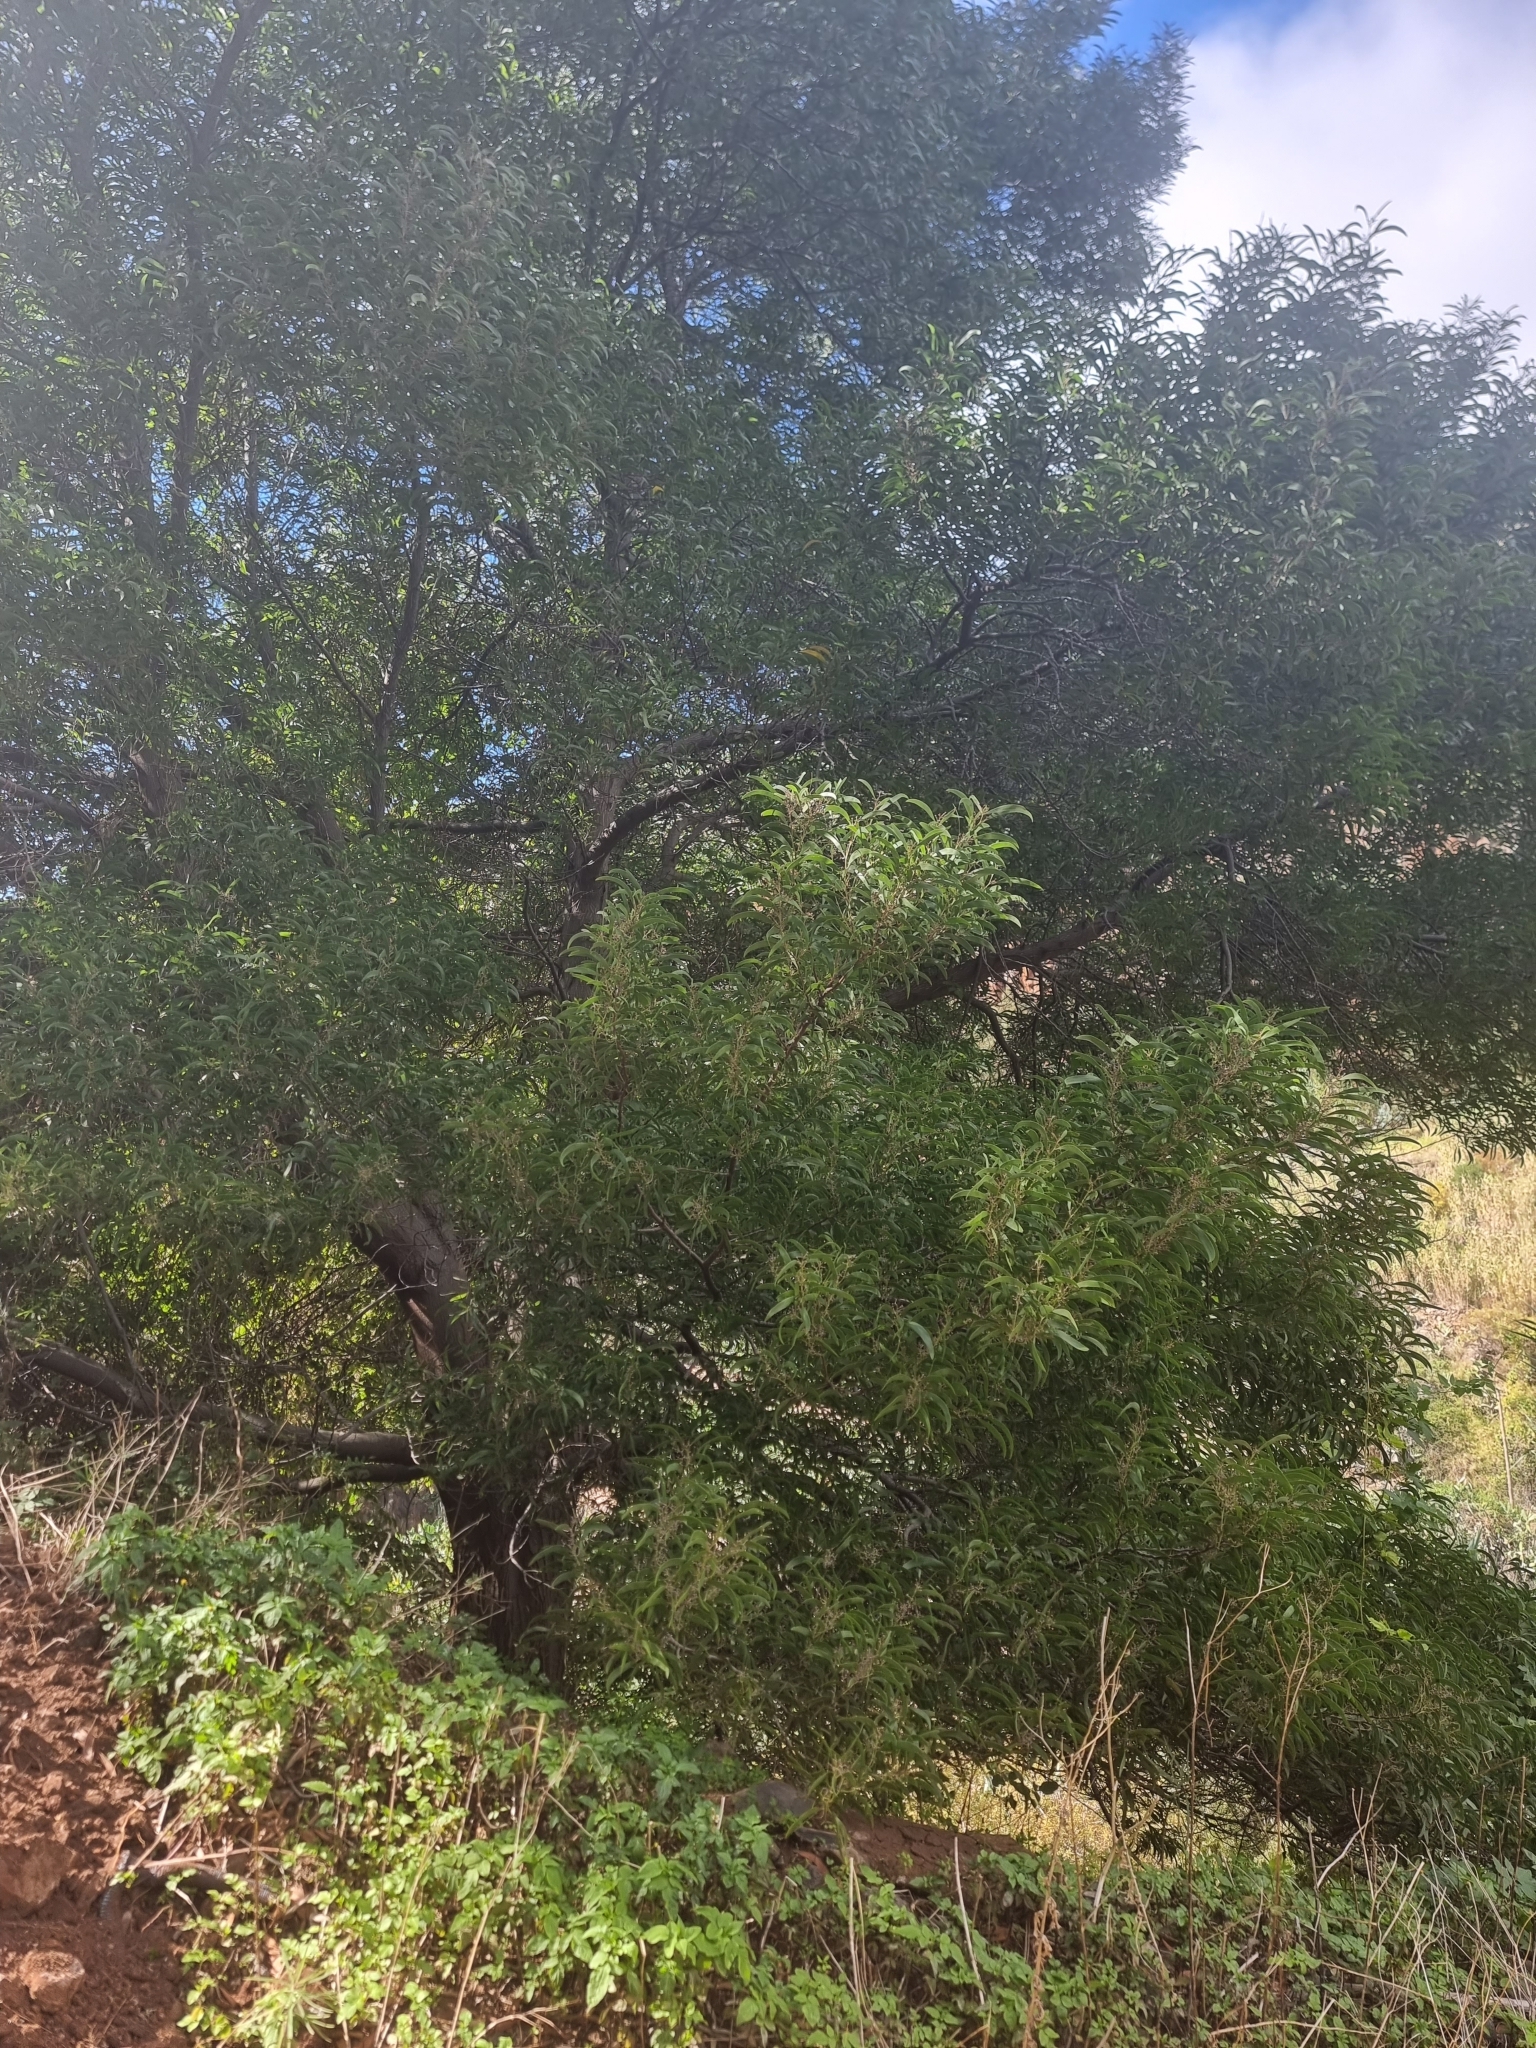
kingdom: Plantae
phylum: Tracheophyta
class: Magnoliopsida
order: Fabales
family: Fabaceae
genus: Acacia
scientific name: Acacia melanoxylon
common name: Blackwood
